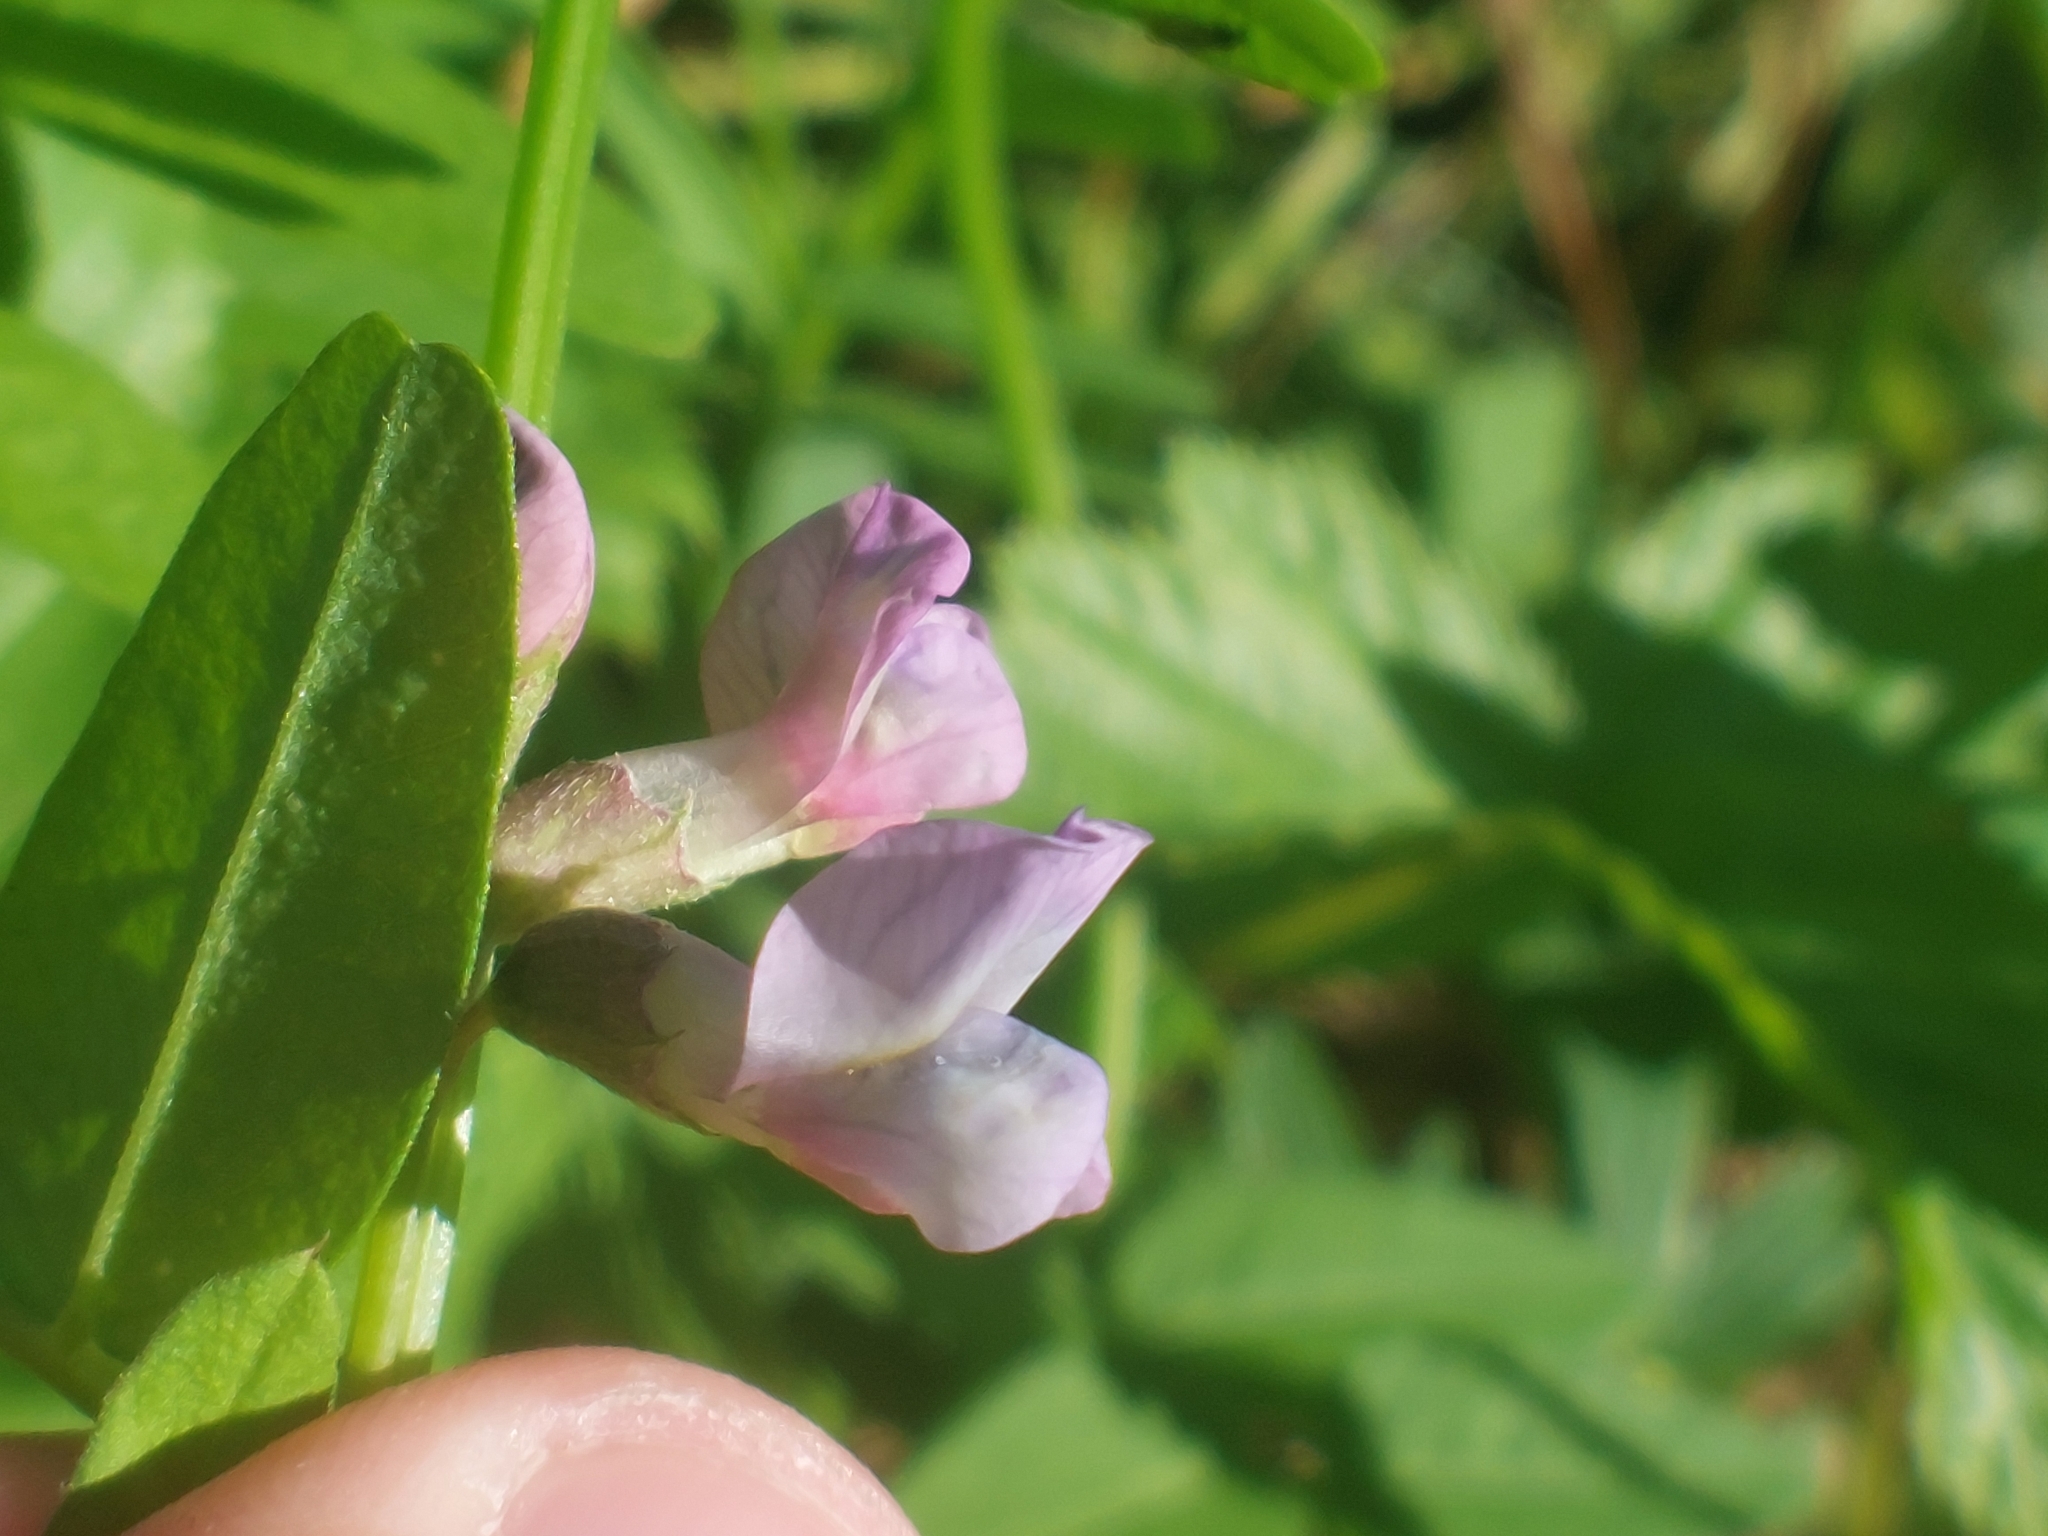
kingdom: Plantae
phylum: Tracheophyta
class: Magnoliopsida
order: Fabales
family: Fabaceae
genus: Vicia
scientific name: Vicia sepium
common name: Bush vetch
